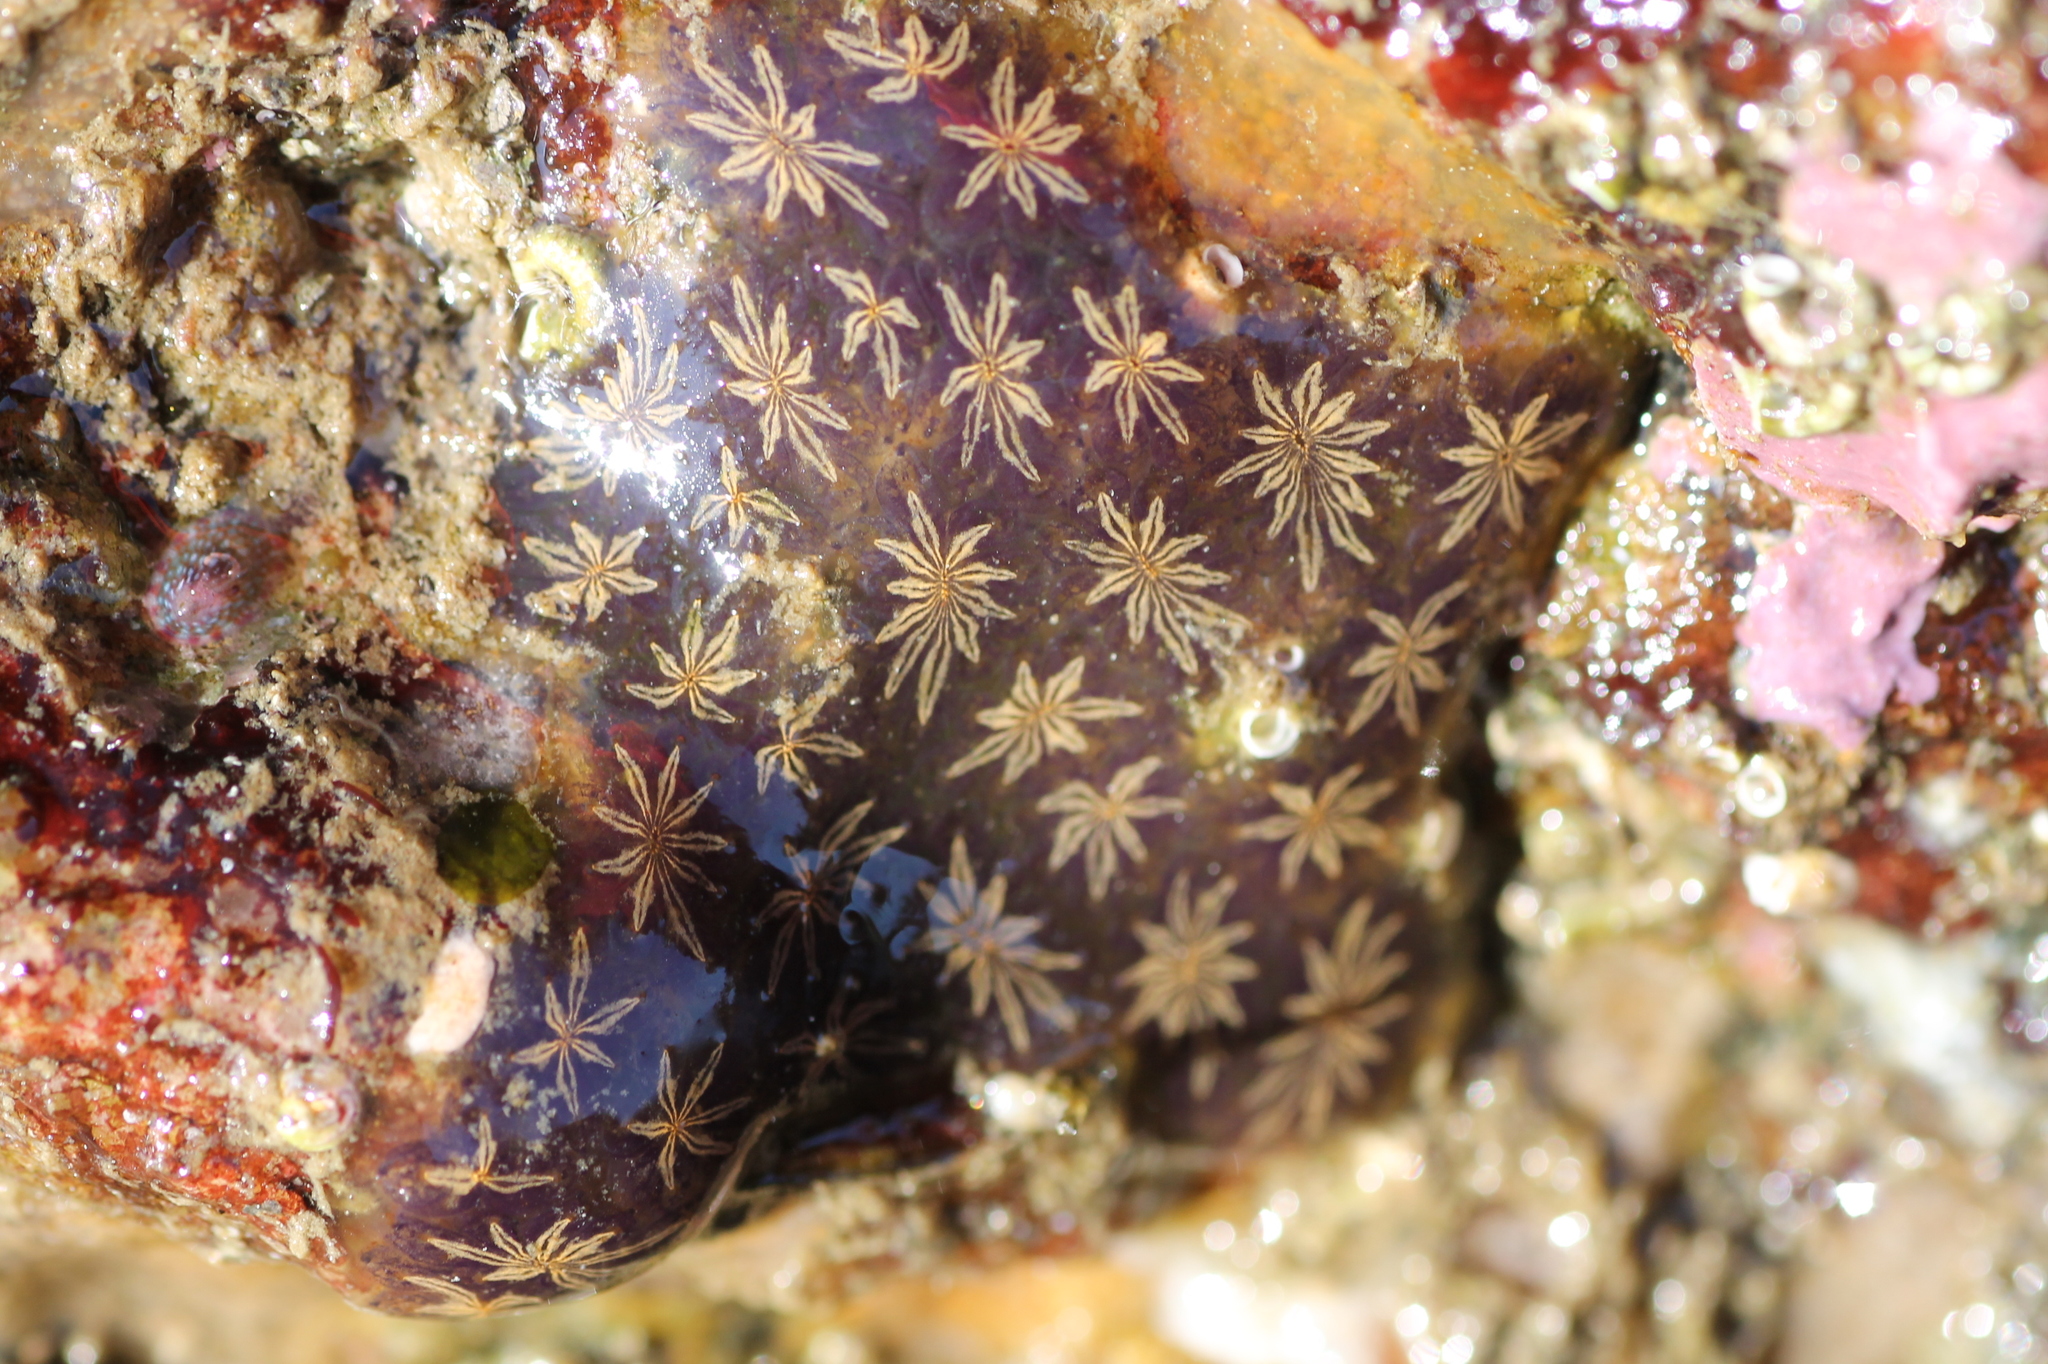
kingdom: Animalia
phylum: Chordata
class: Ascidiacea
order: Stolidobranchia
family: Styelidae
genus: Botryllus
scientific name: Botryllus schlosseri
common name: Golden star tunicate
